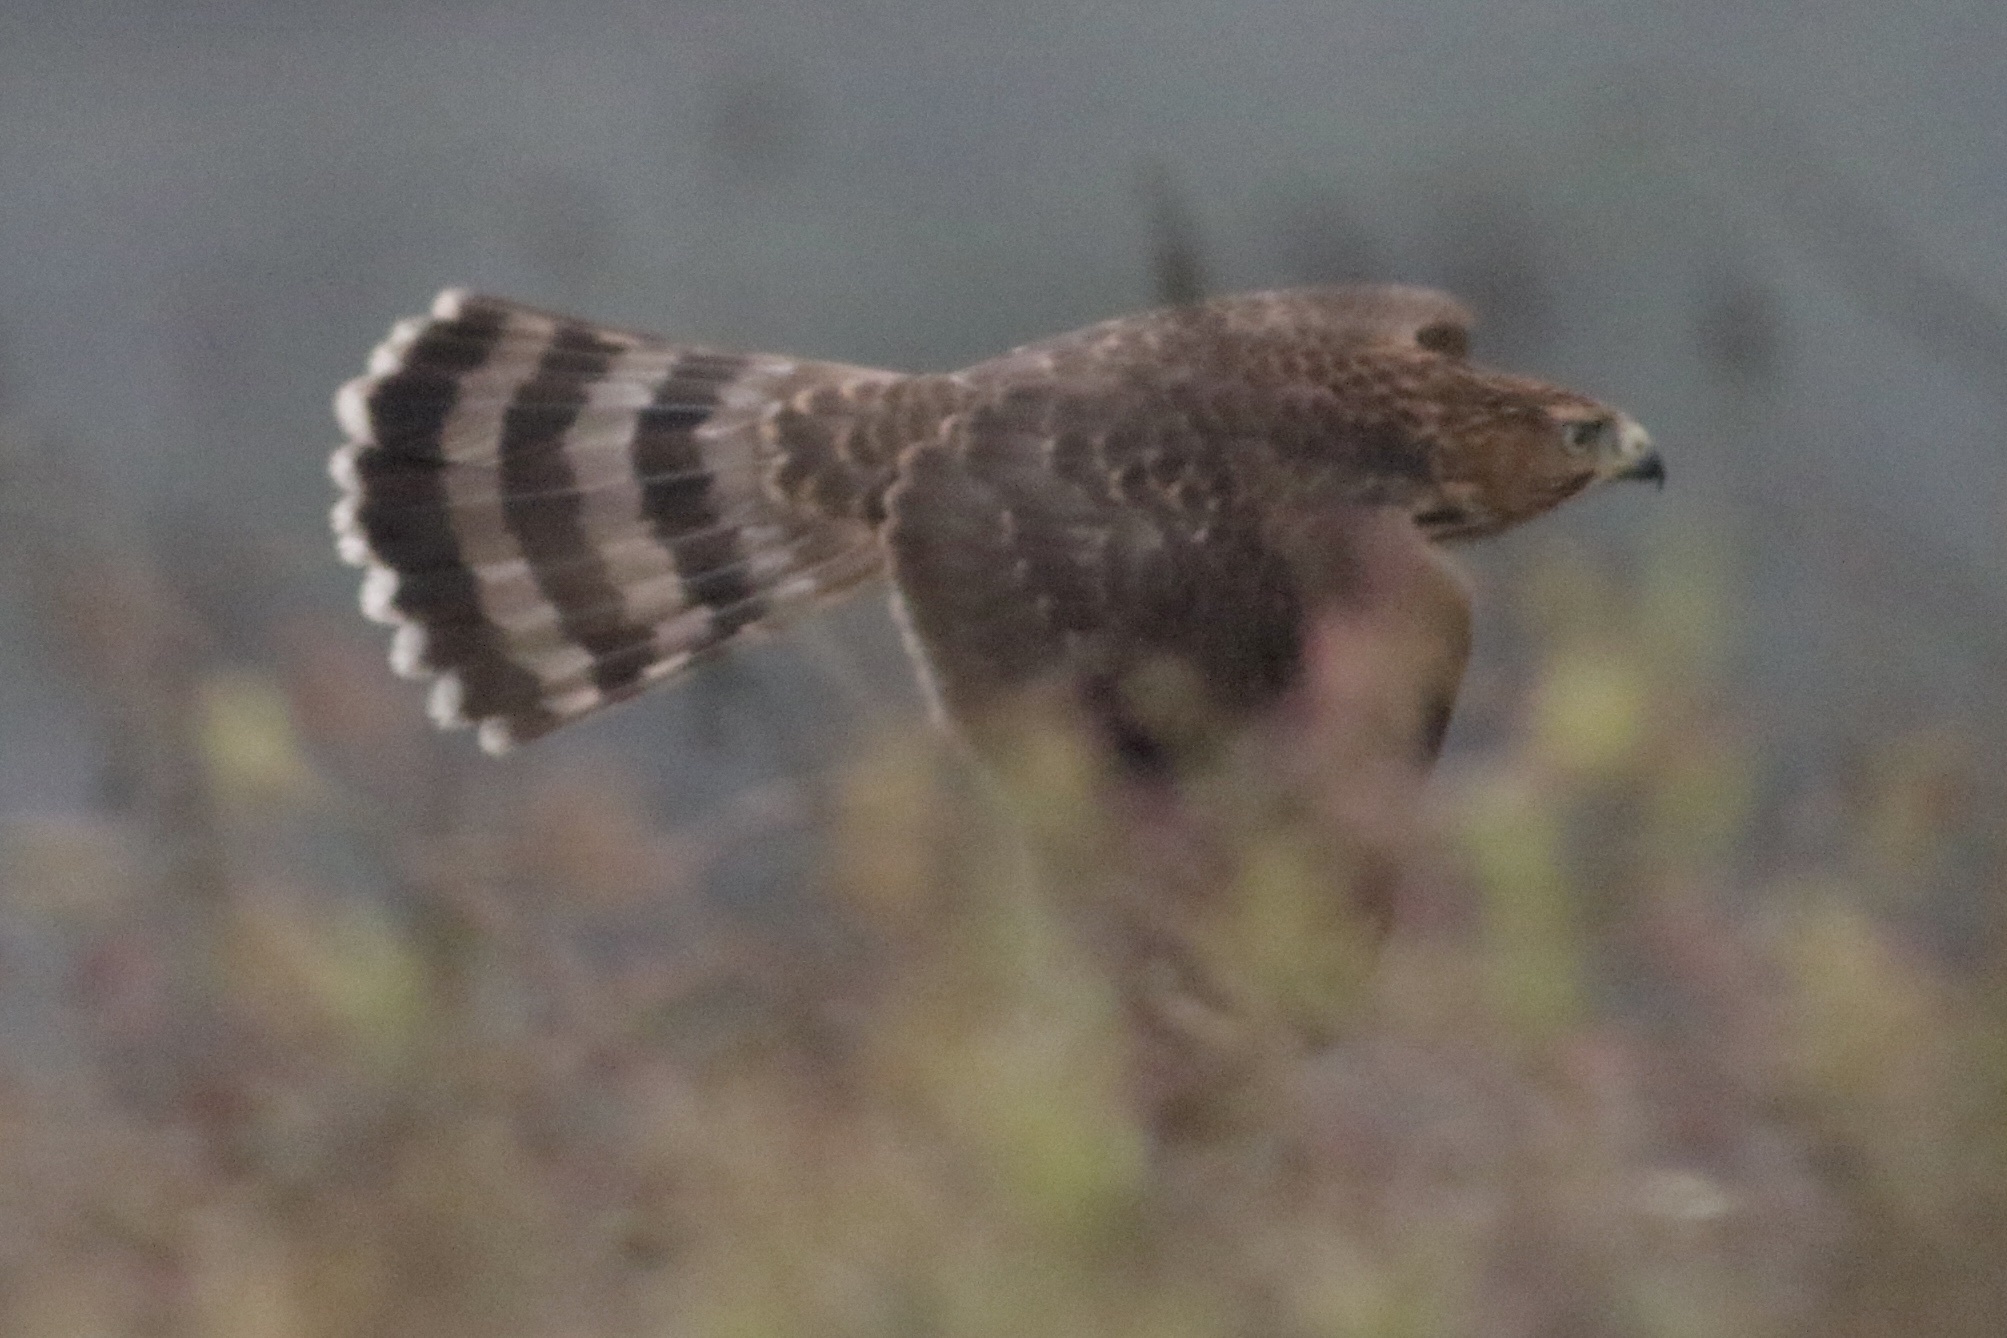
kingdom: Animalia
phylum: Chordata
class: Aves
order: Accipitriformes
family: Accipitridae
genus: Accipiter
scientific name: Accipiter cooperii
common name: Cooper's hawk
